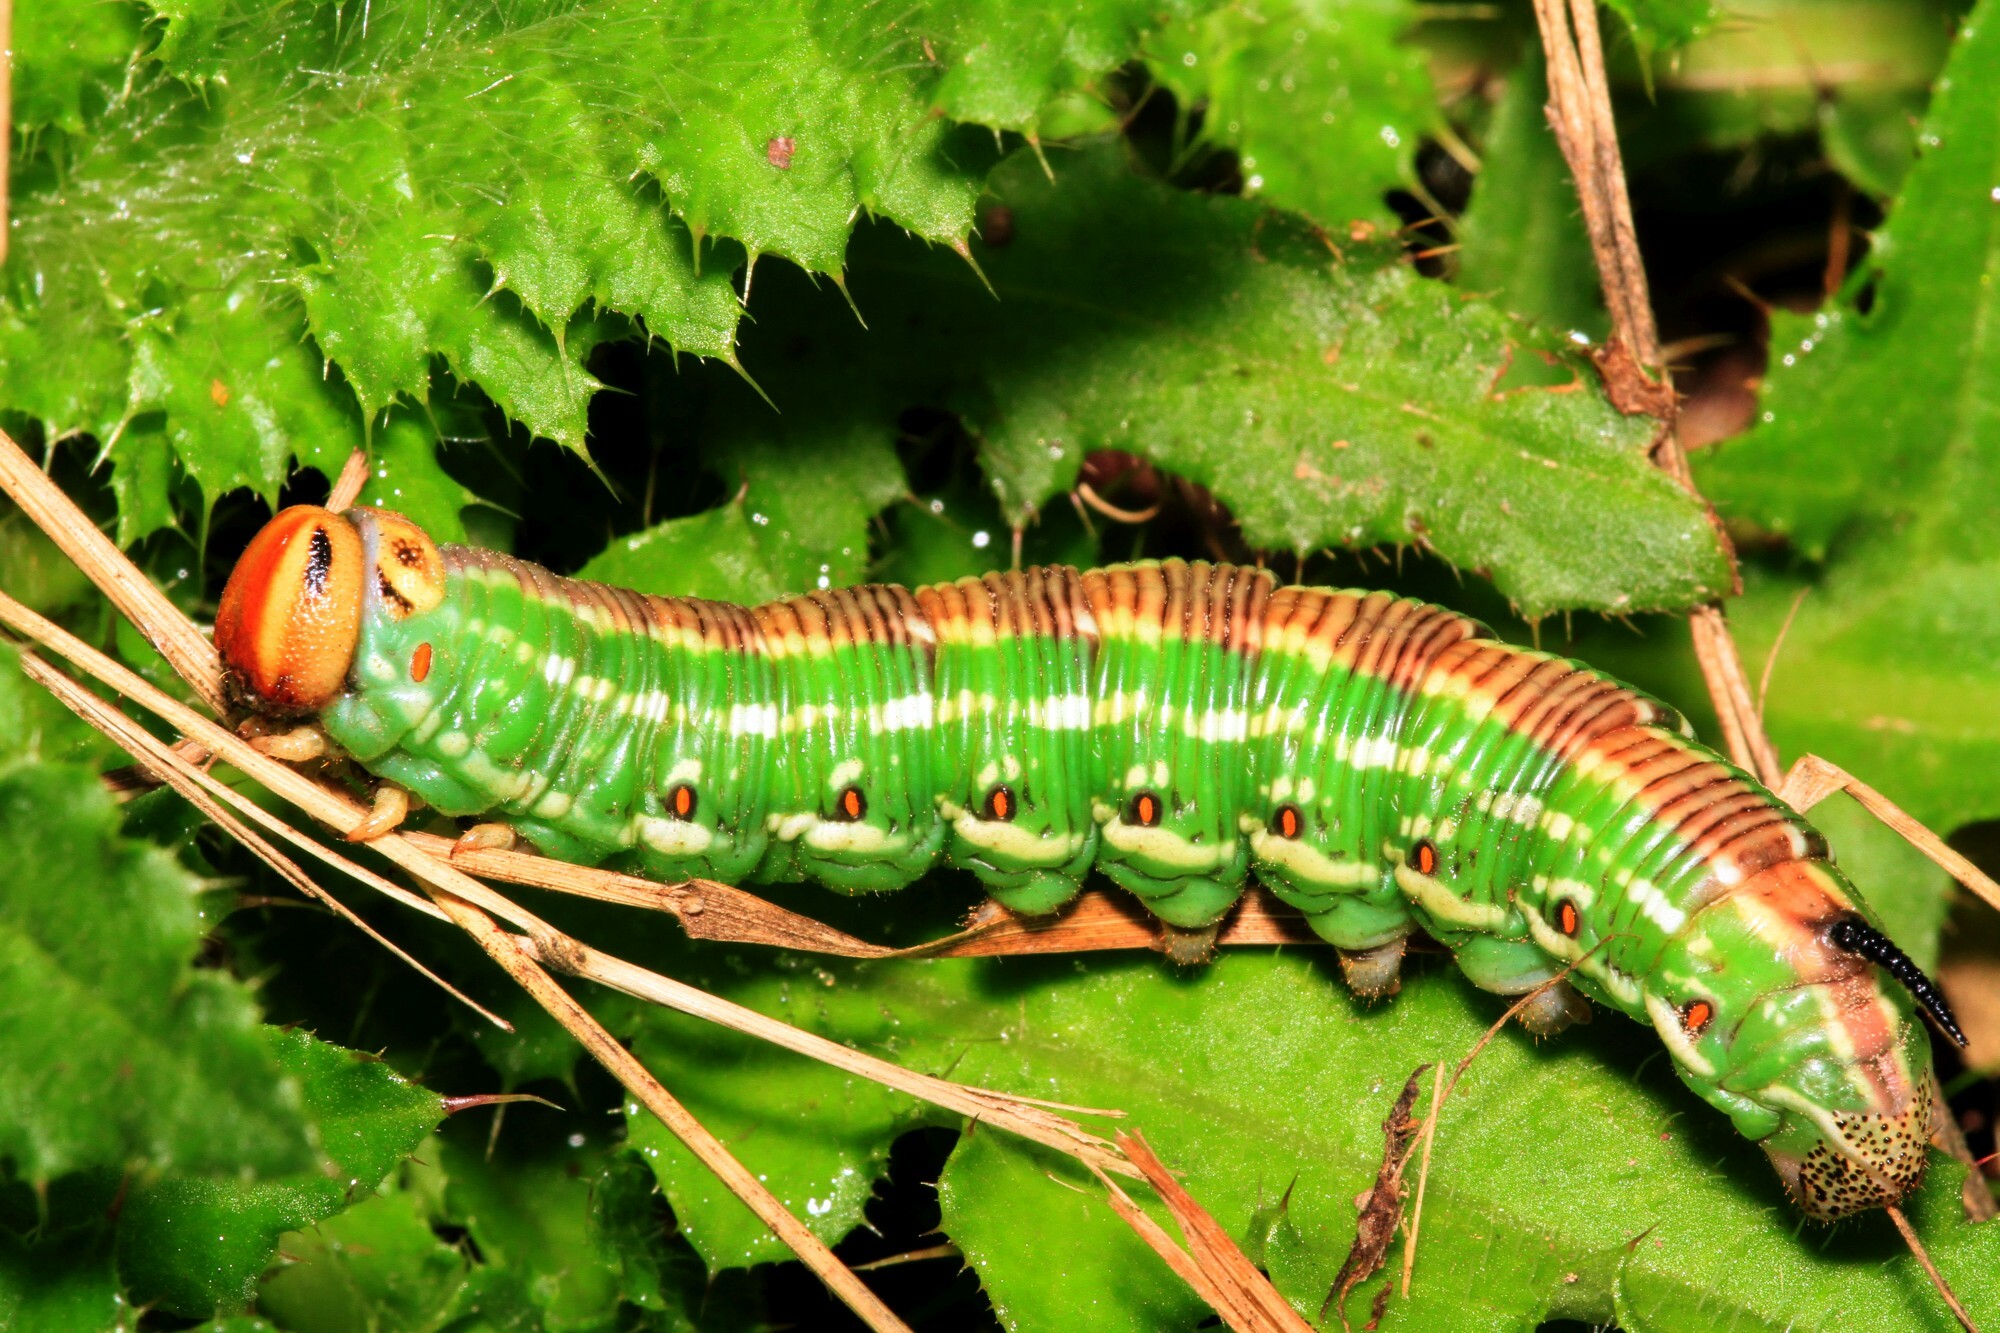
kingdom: Animalia
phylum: Arthropoda
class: Insecta
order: Lepidoptera
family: Sphingidae
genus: Sphinx
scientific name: Sphinx pinastri
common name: Pine hawk-moth
